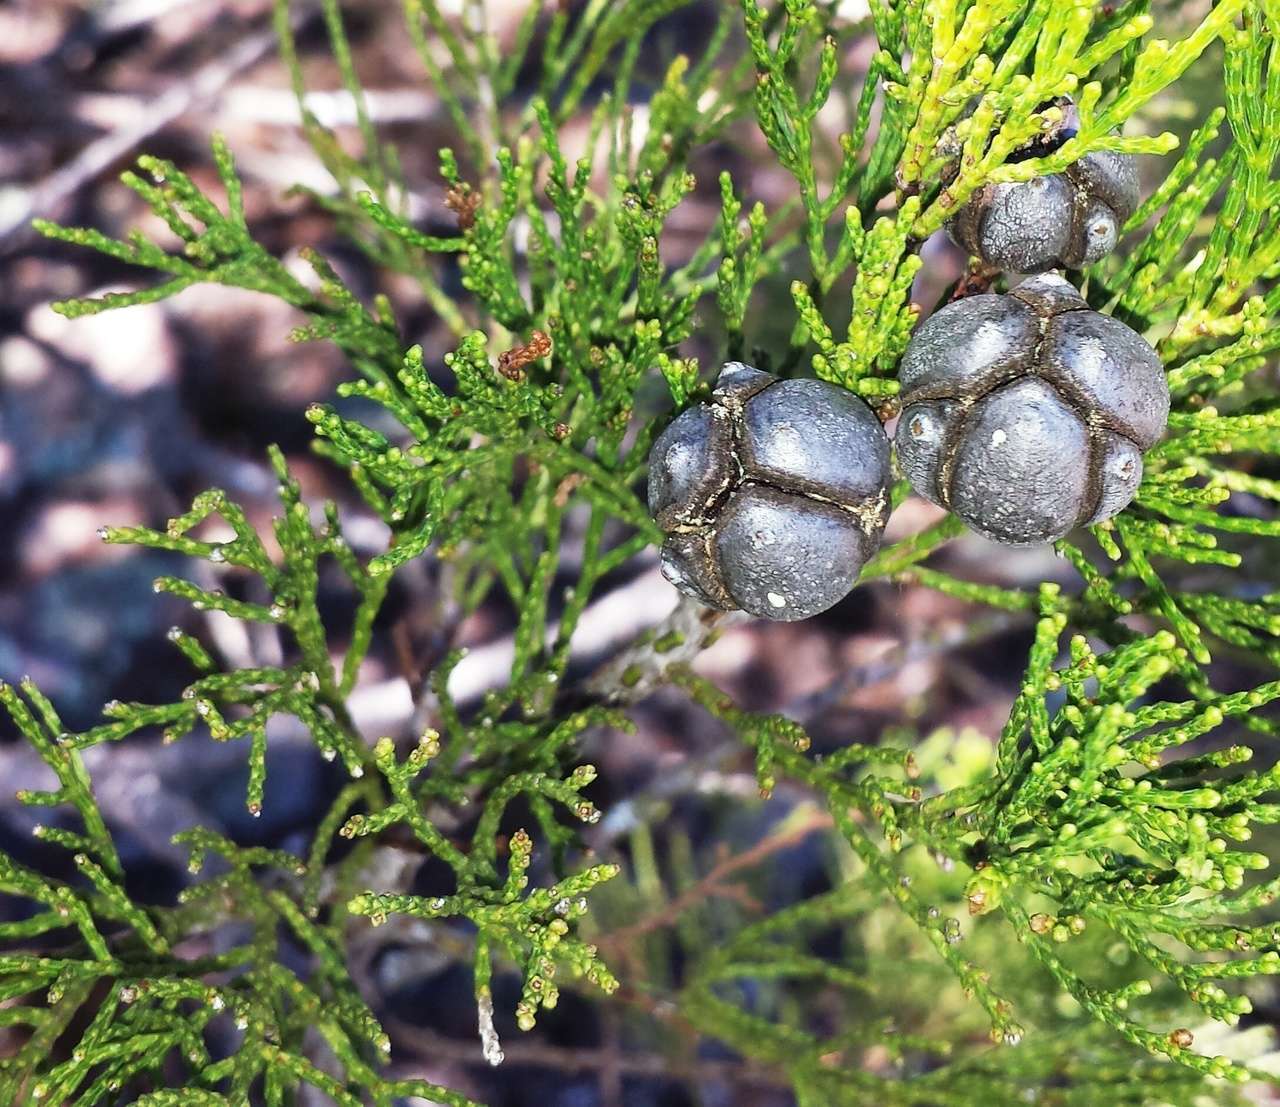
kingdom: Plantae
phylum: Tracheophyta
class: Pinopsida
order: Pinales
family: Cupressaceae
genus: Callitris
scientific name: Callitris endlicheri
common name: Black cypress-pine
